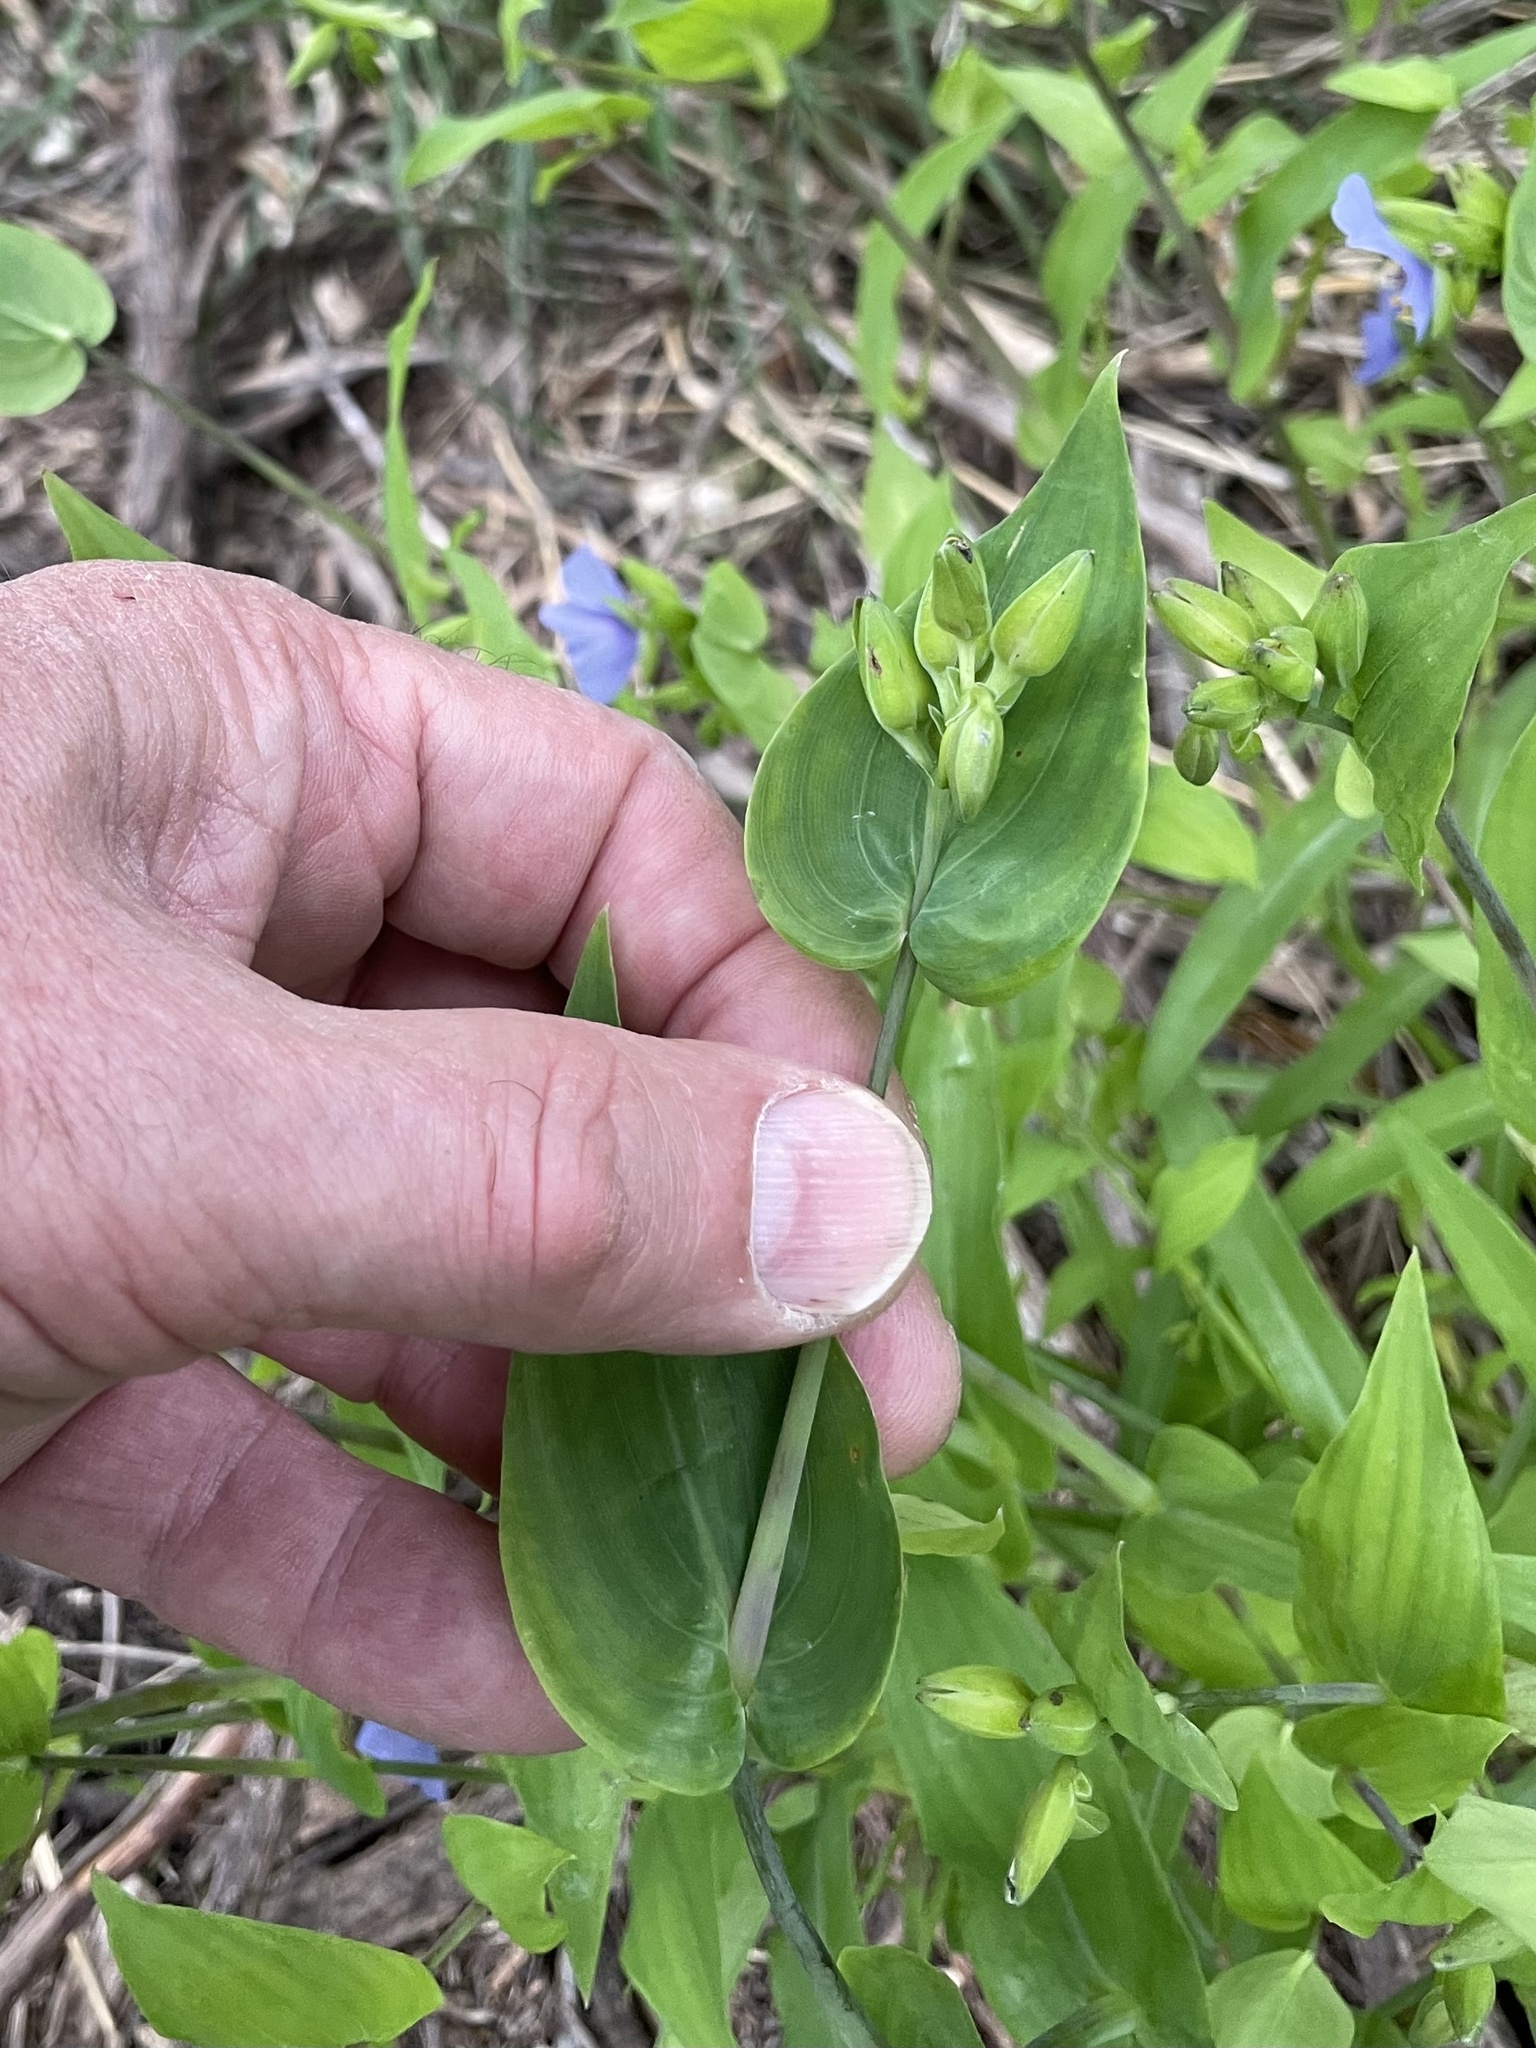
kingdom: Plantae
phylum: Tracheophyta
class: Liliopsida
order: Commelinales
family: Commelinaceae
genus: Tinantia
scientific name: Tinantia anomala
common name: False dayflower
